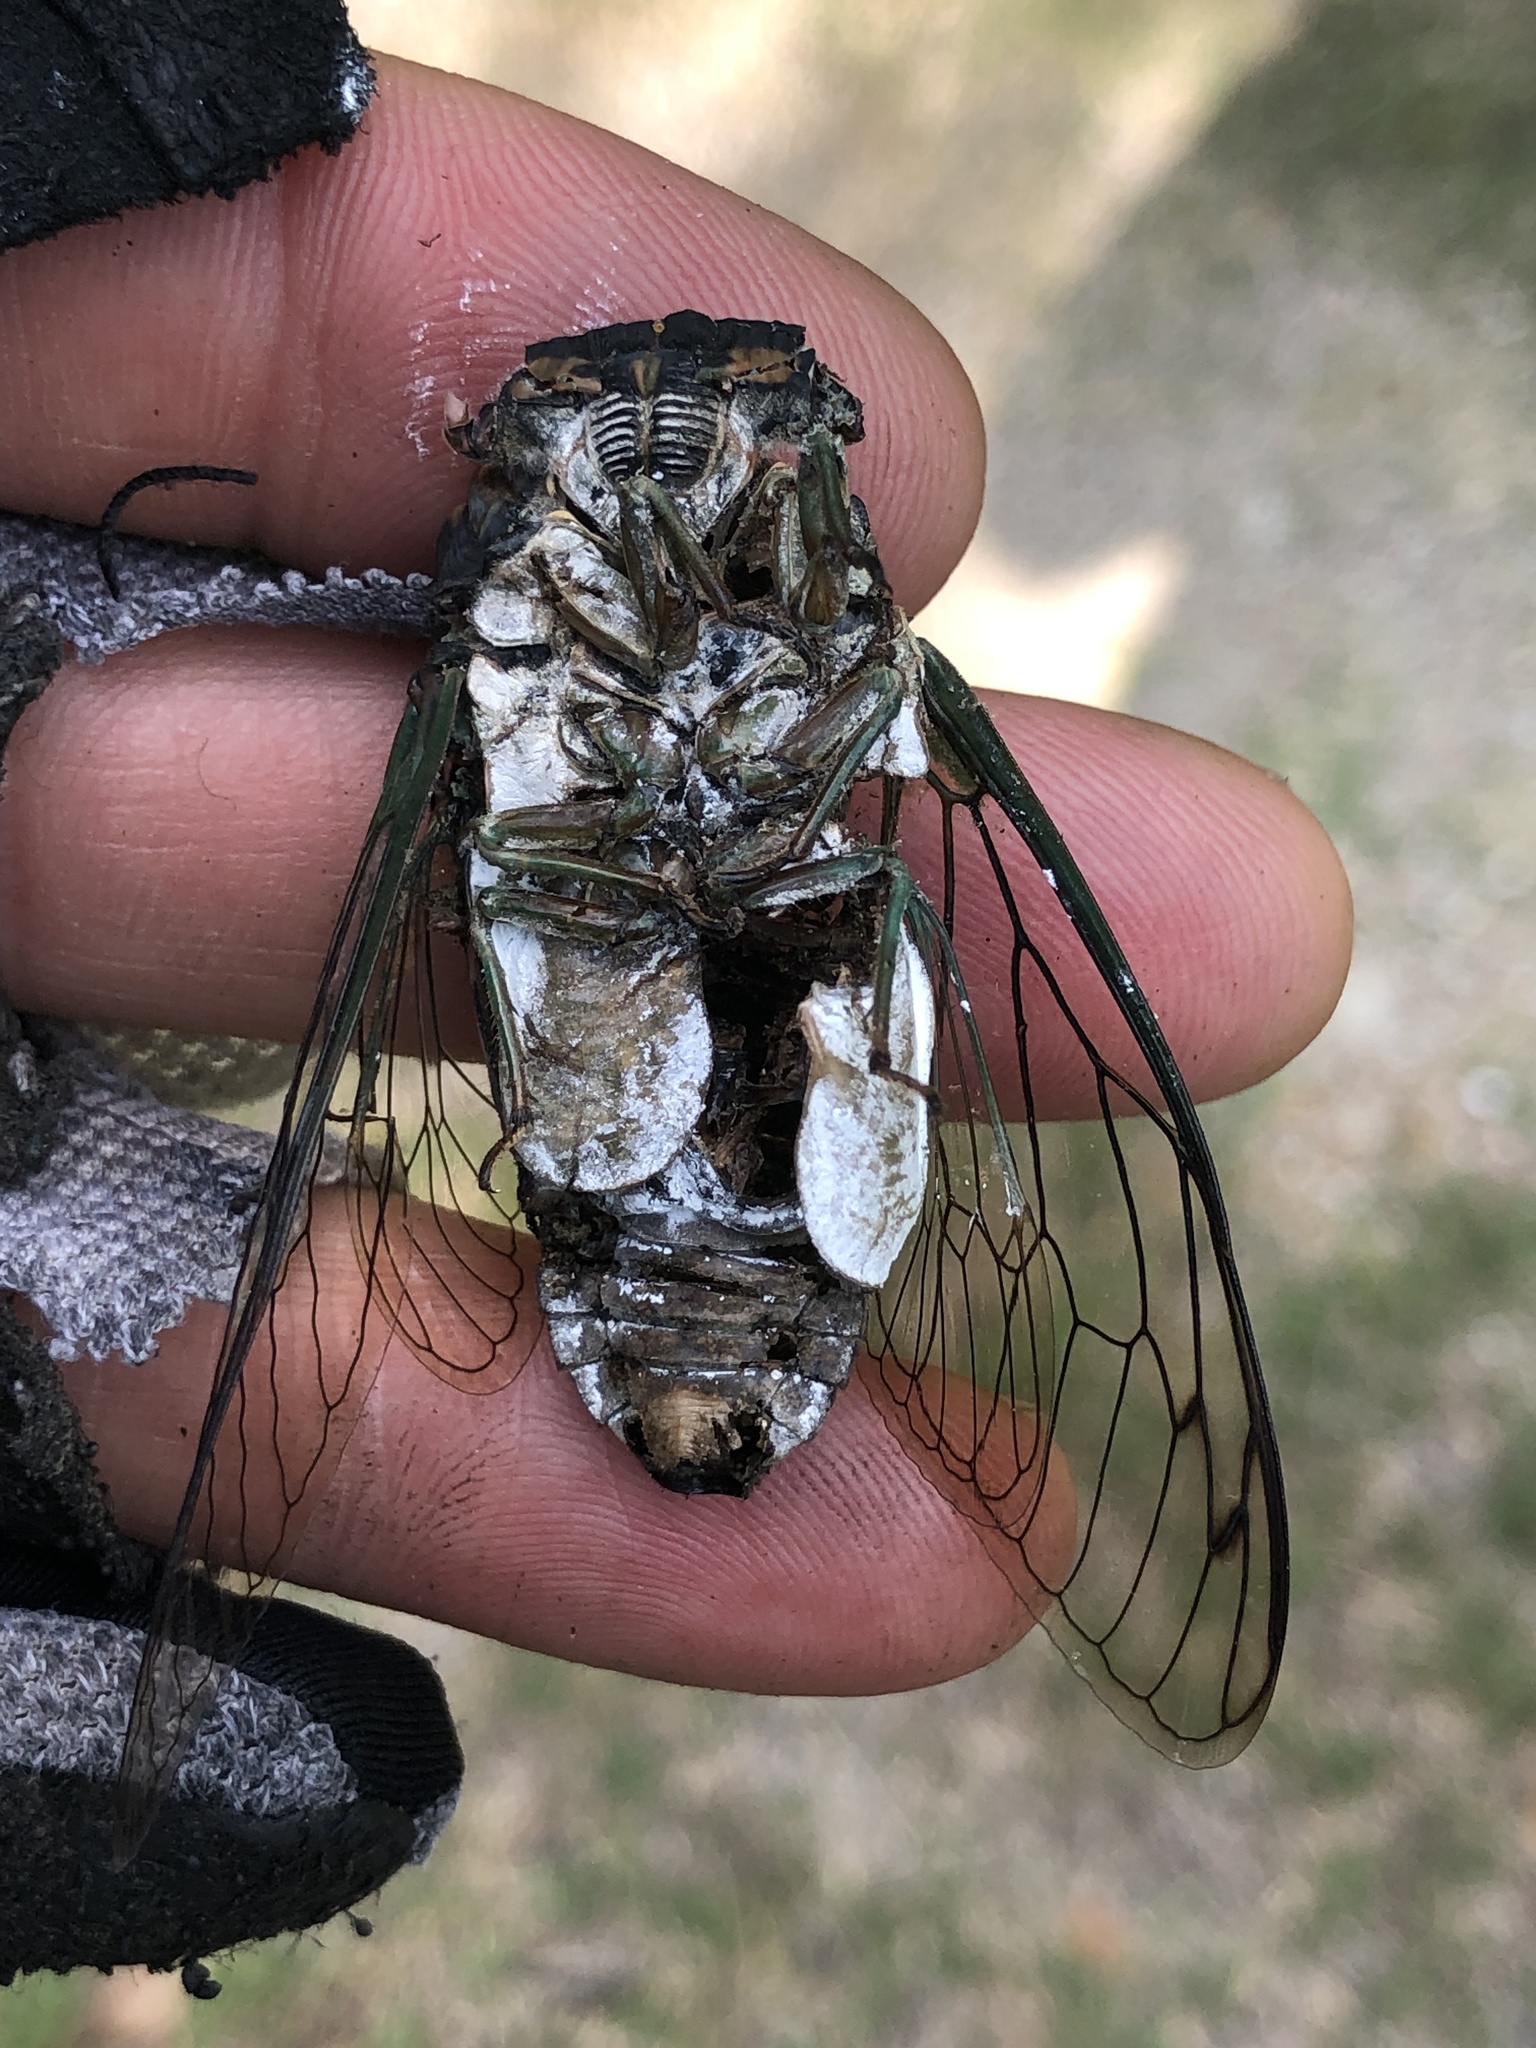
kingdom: Animalia
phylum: Arthropoda
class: Insecta
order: Hemiptera
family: Cicadidae
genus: Neotibicen
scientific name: Neotibicen tibicen
